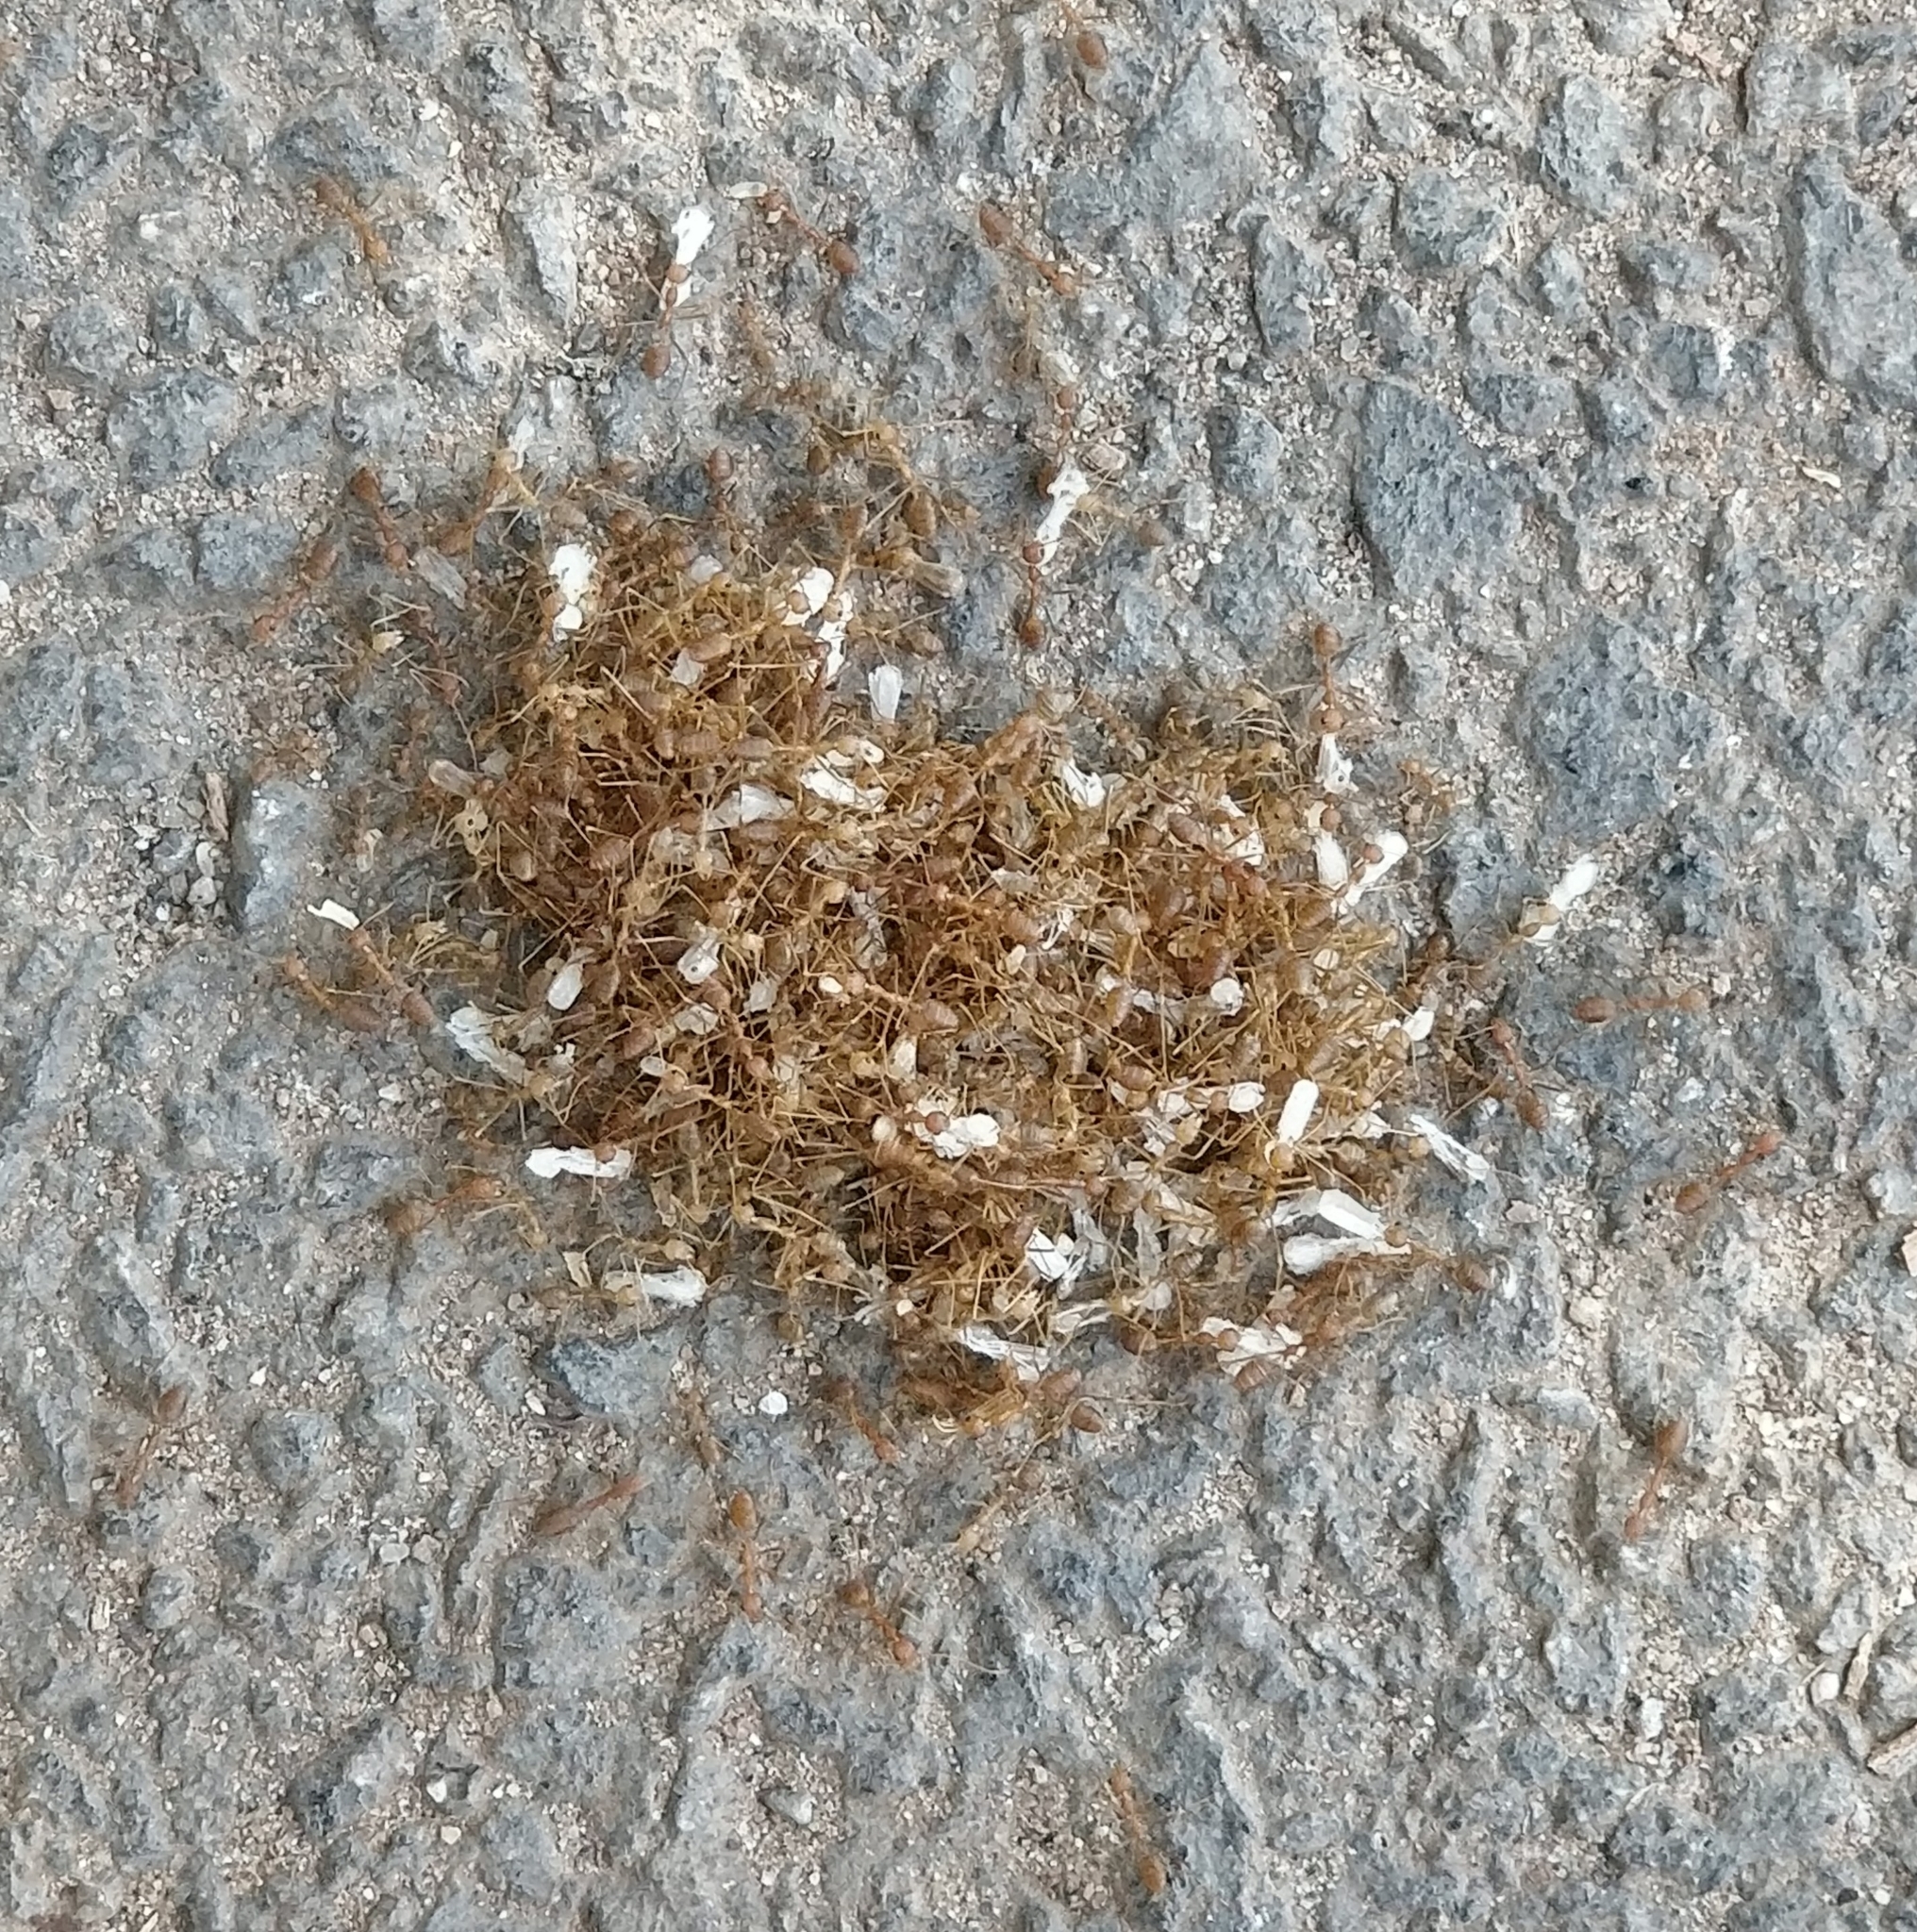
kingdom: Animalia
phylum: Arthropoda
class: Insecta
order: Hymenoptera
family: Formicidae
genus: Oecophylla
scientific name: Oecophylla smaragdina
